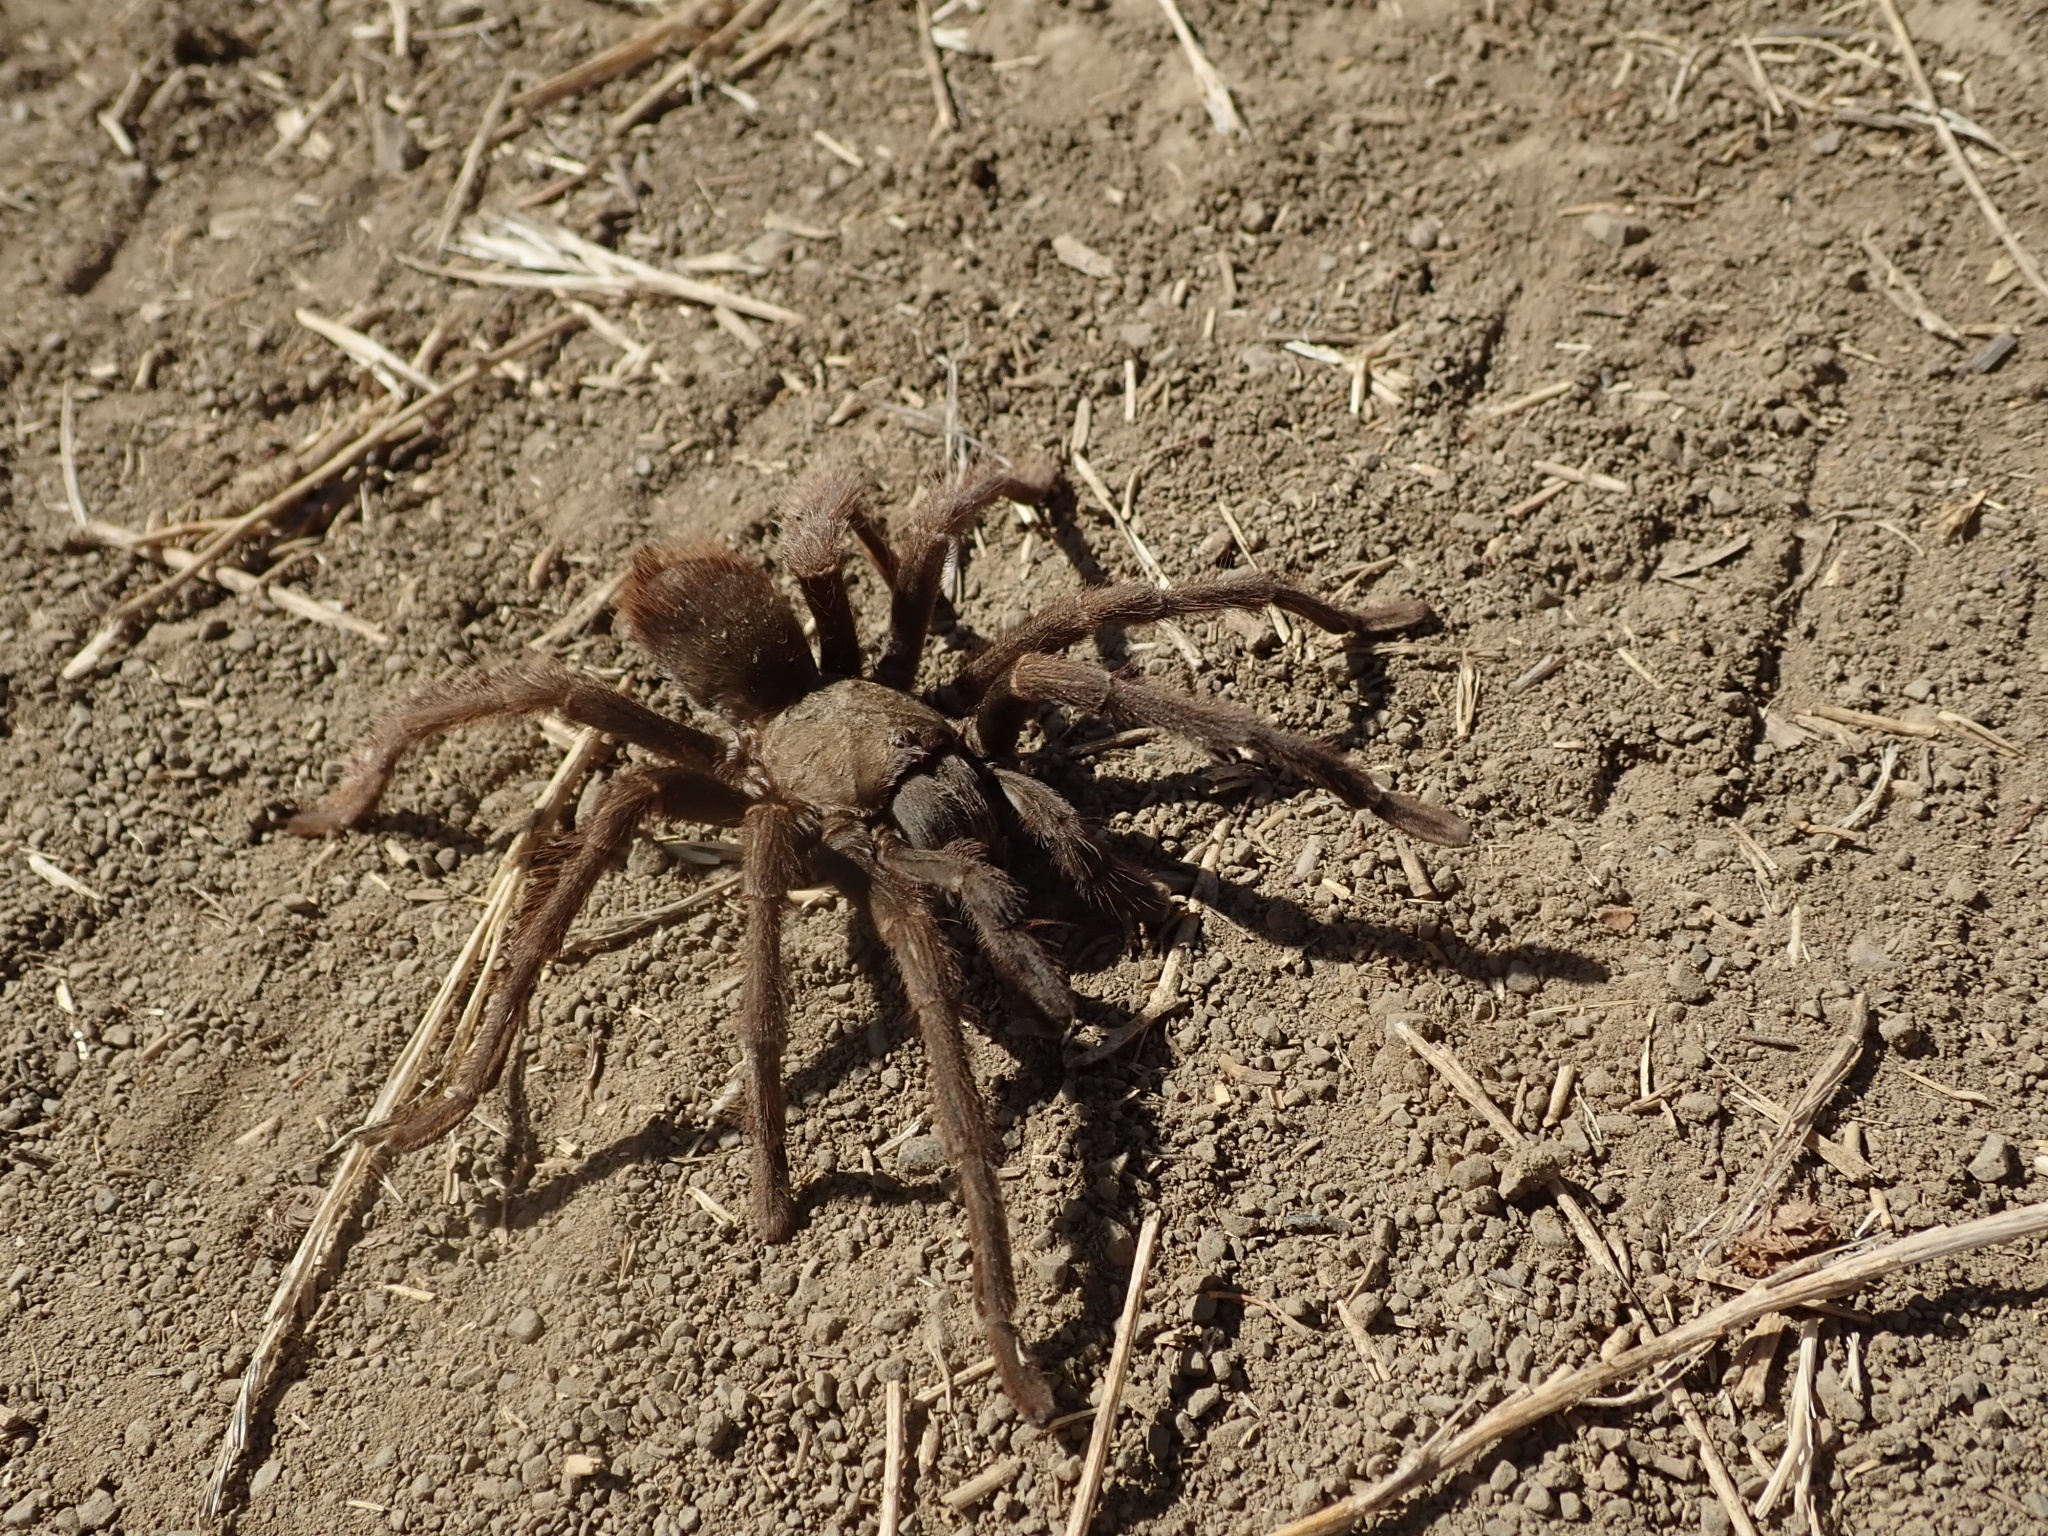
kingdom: Animalia
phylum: Arthropoda
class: Arachnida
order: Araneae
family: Theraphosidae
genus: Aphonopelma
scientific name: Aphonopelma iodius
